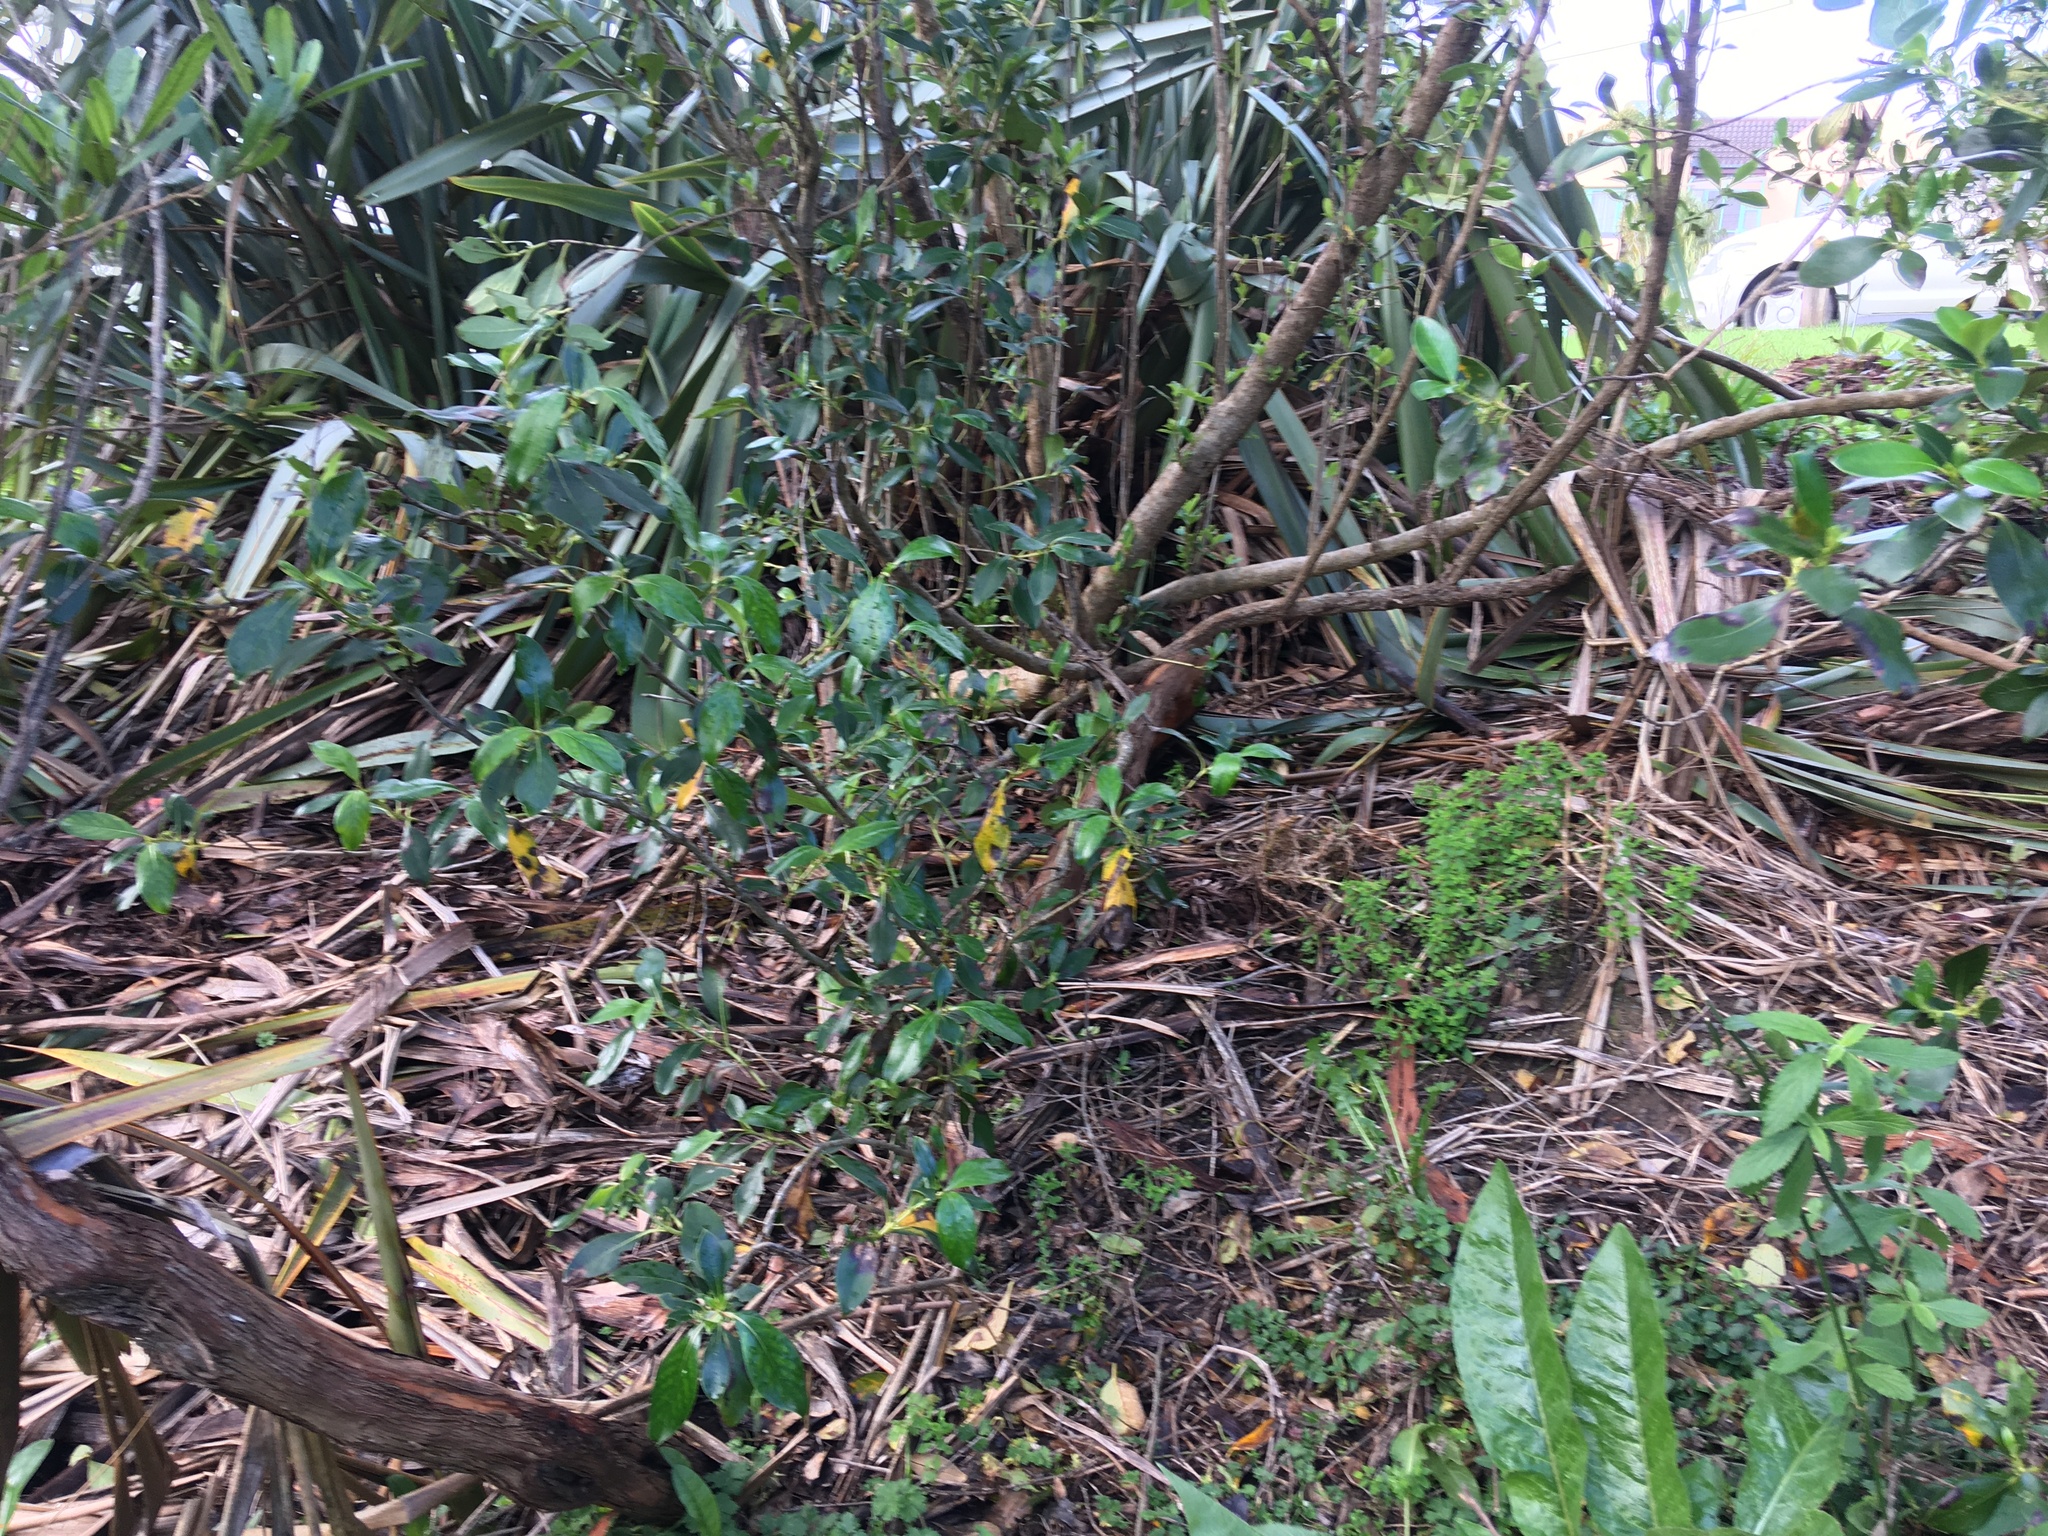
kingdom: Plantae
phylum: Tracheophyta
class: Magnoliopsida
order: Sapindales
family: Sapindaceae
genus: Dodonaea
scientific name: Dodonaea viscosa
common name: Hopbush
